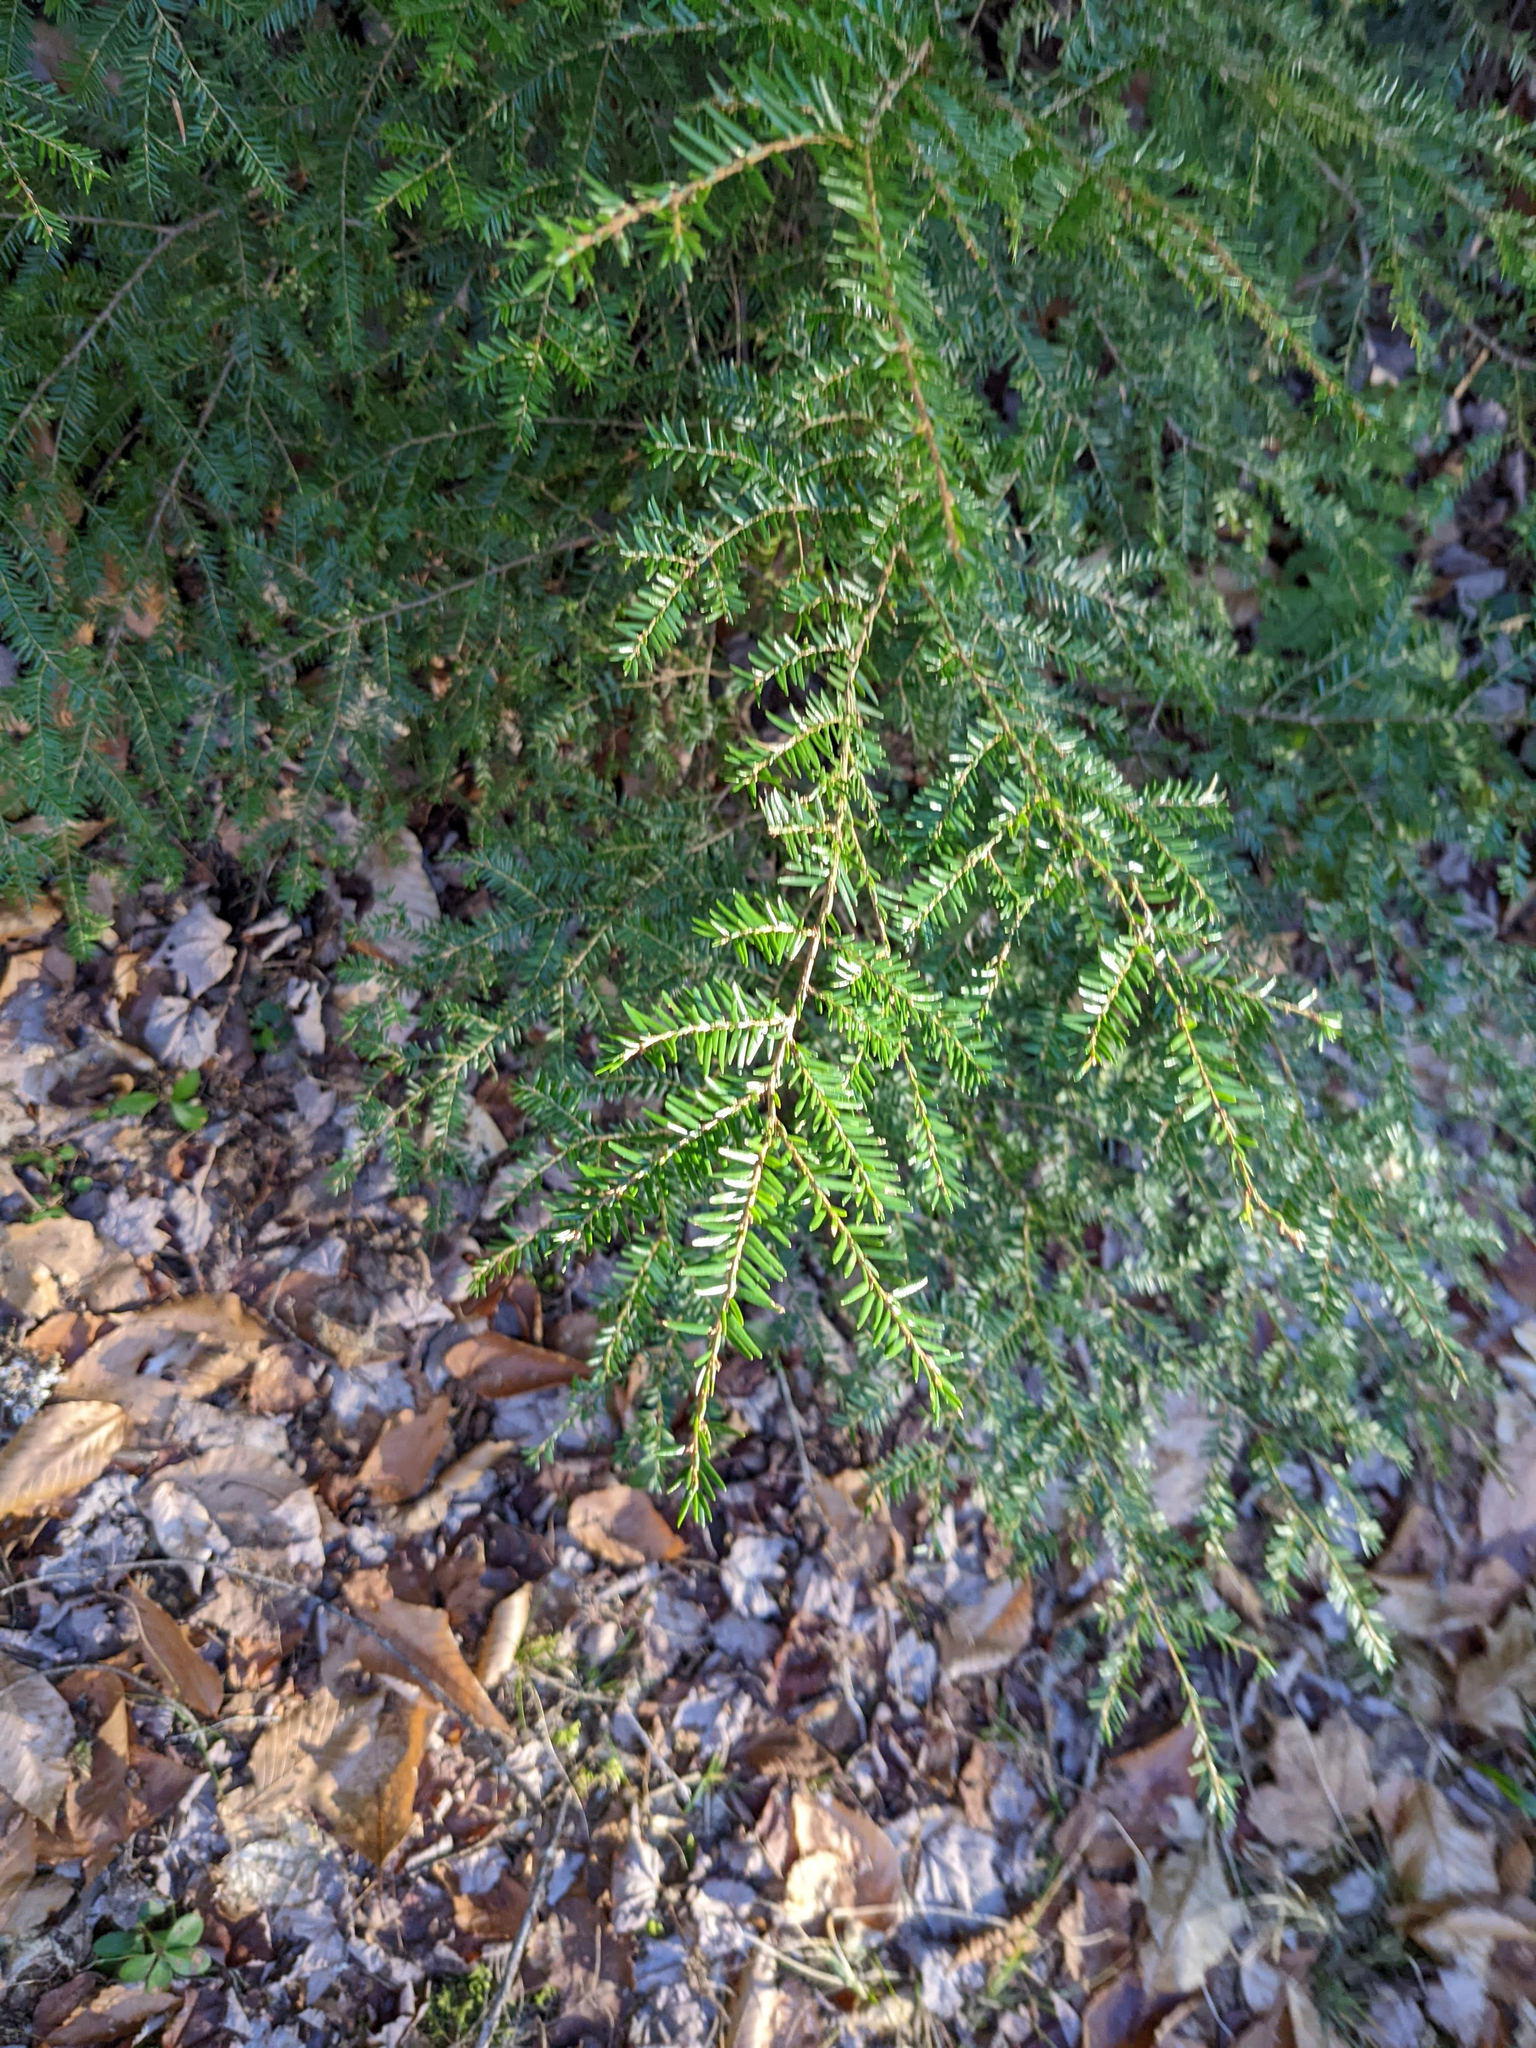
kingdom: Plantae
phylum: Tracheophyta
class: Pinopsida
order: Pinales
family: Pinaceae
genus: Tsuga
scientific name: Tsuga canadensis
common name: Eastern hemlock
